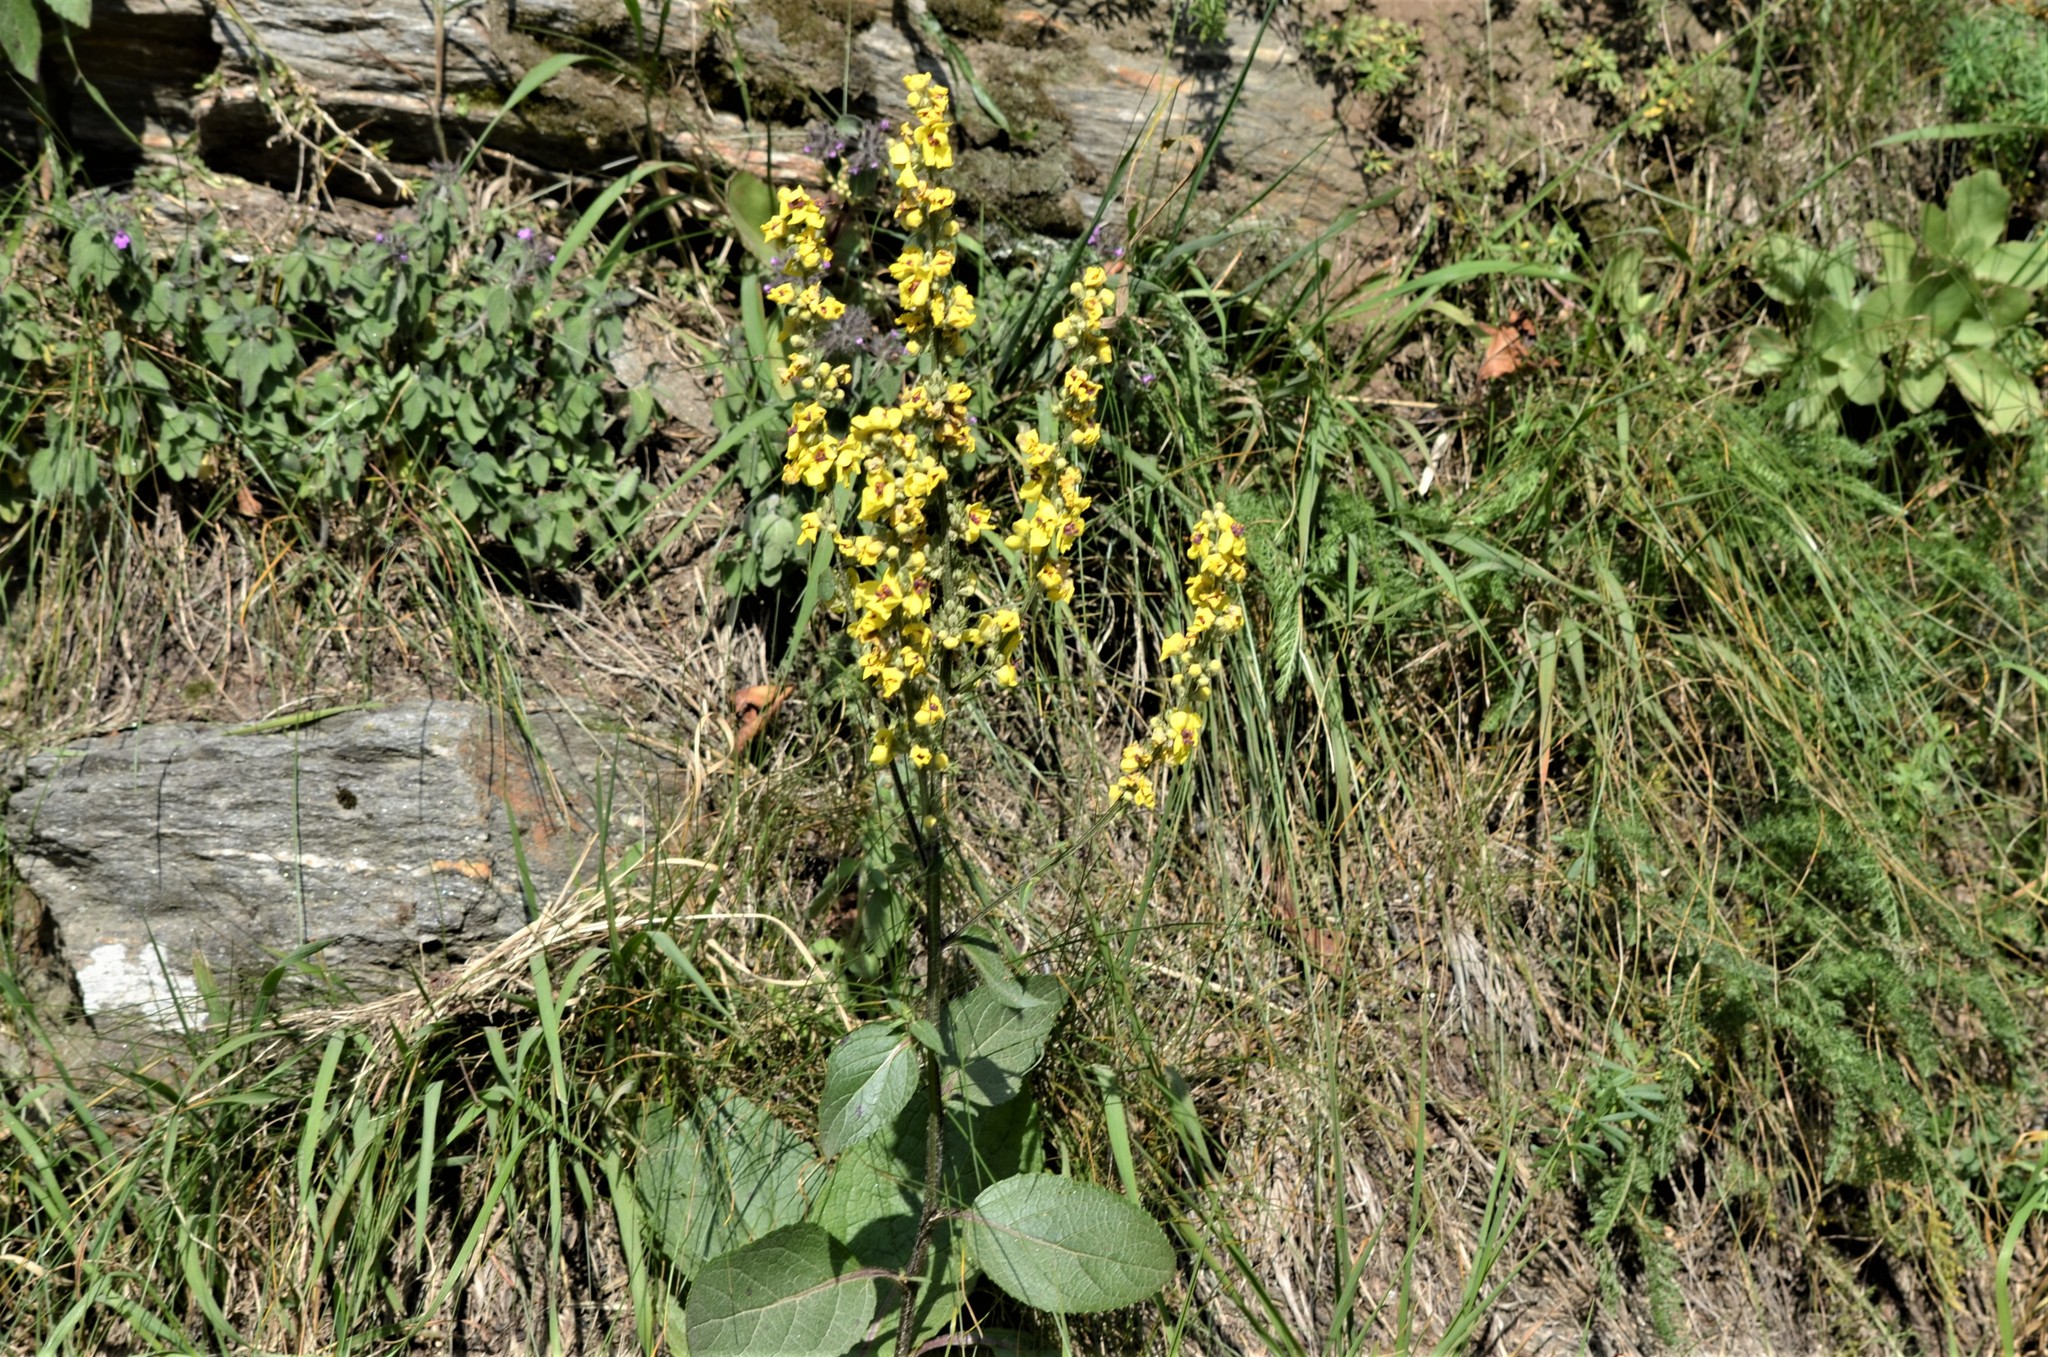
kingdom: Plantae
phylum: Tracheophyta
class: Magnoliopsida
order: Lamiales
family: Scrophulariaceae
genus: Verbascum
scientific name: Verbascum nigrum
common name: Dark mullein
